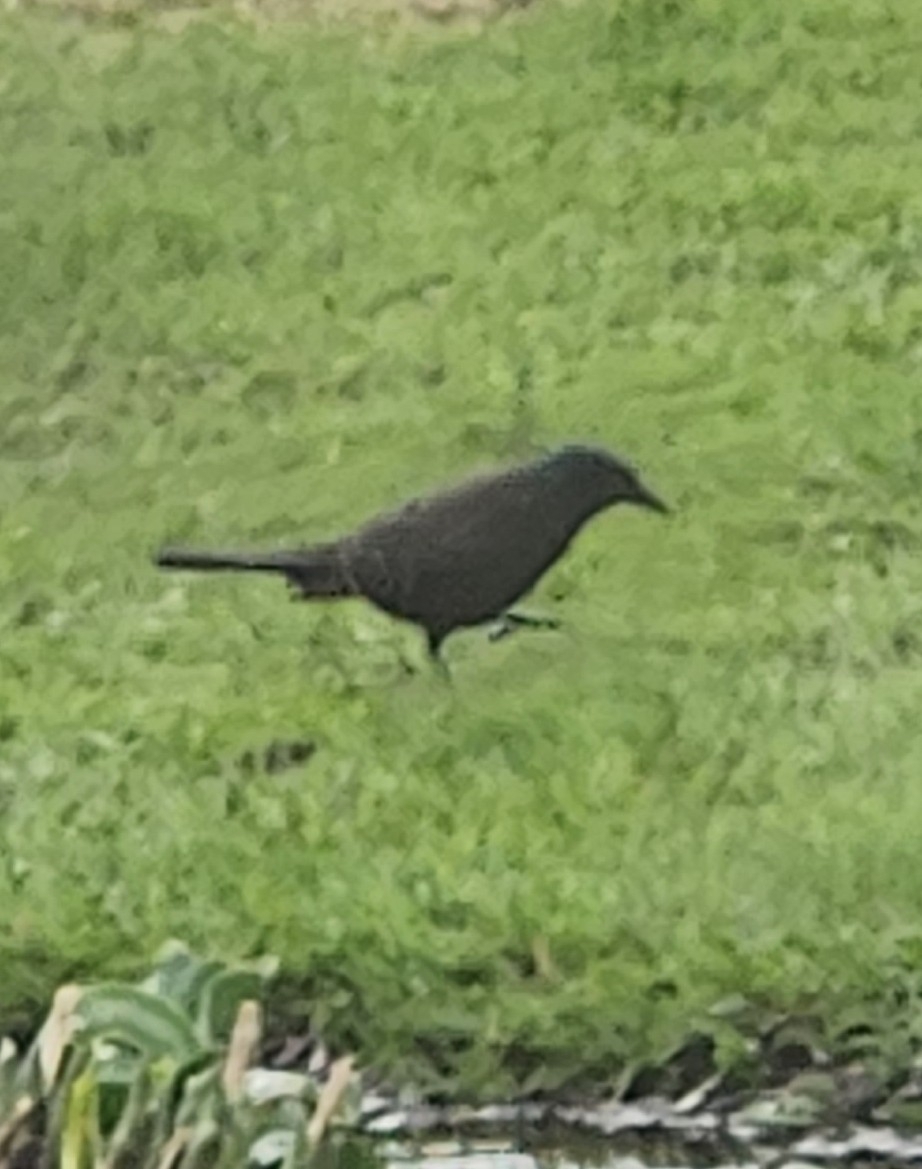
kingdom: Animalia
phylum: Chordata
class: Aves
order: Passeriformes
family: Icteridae
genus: Quiscalus
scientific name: Quiscalus quiscula
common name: Common grackle
